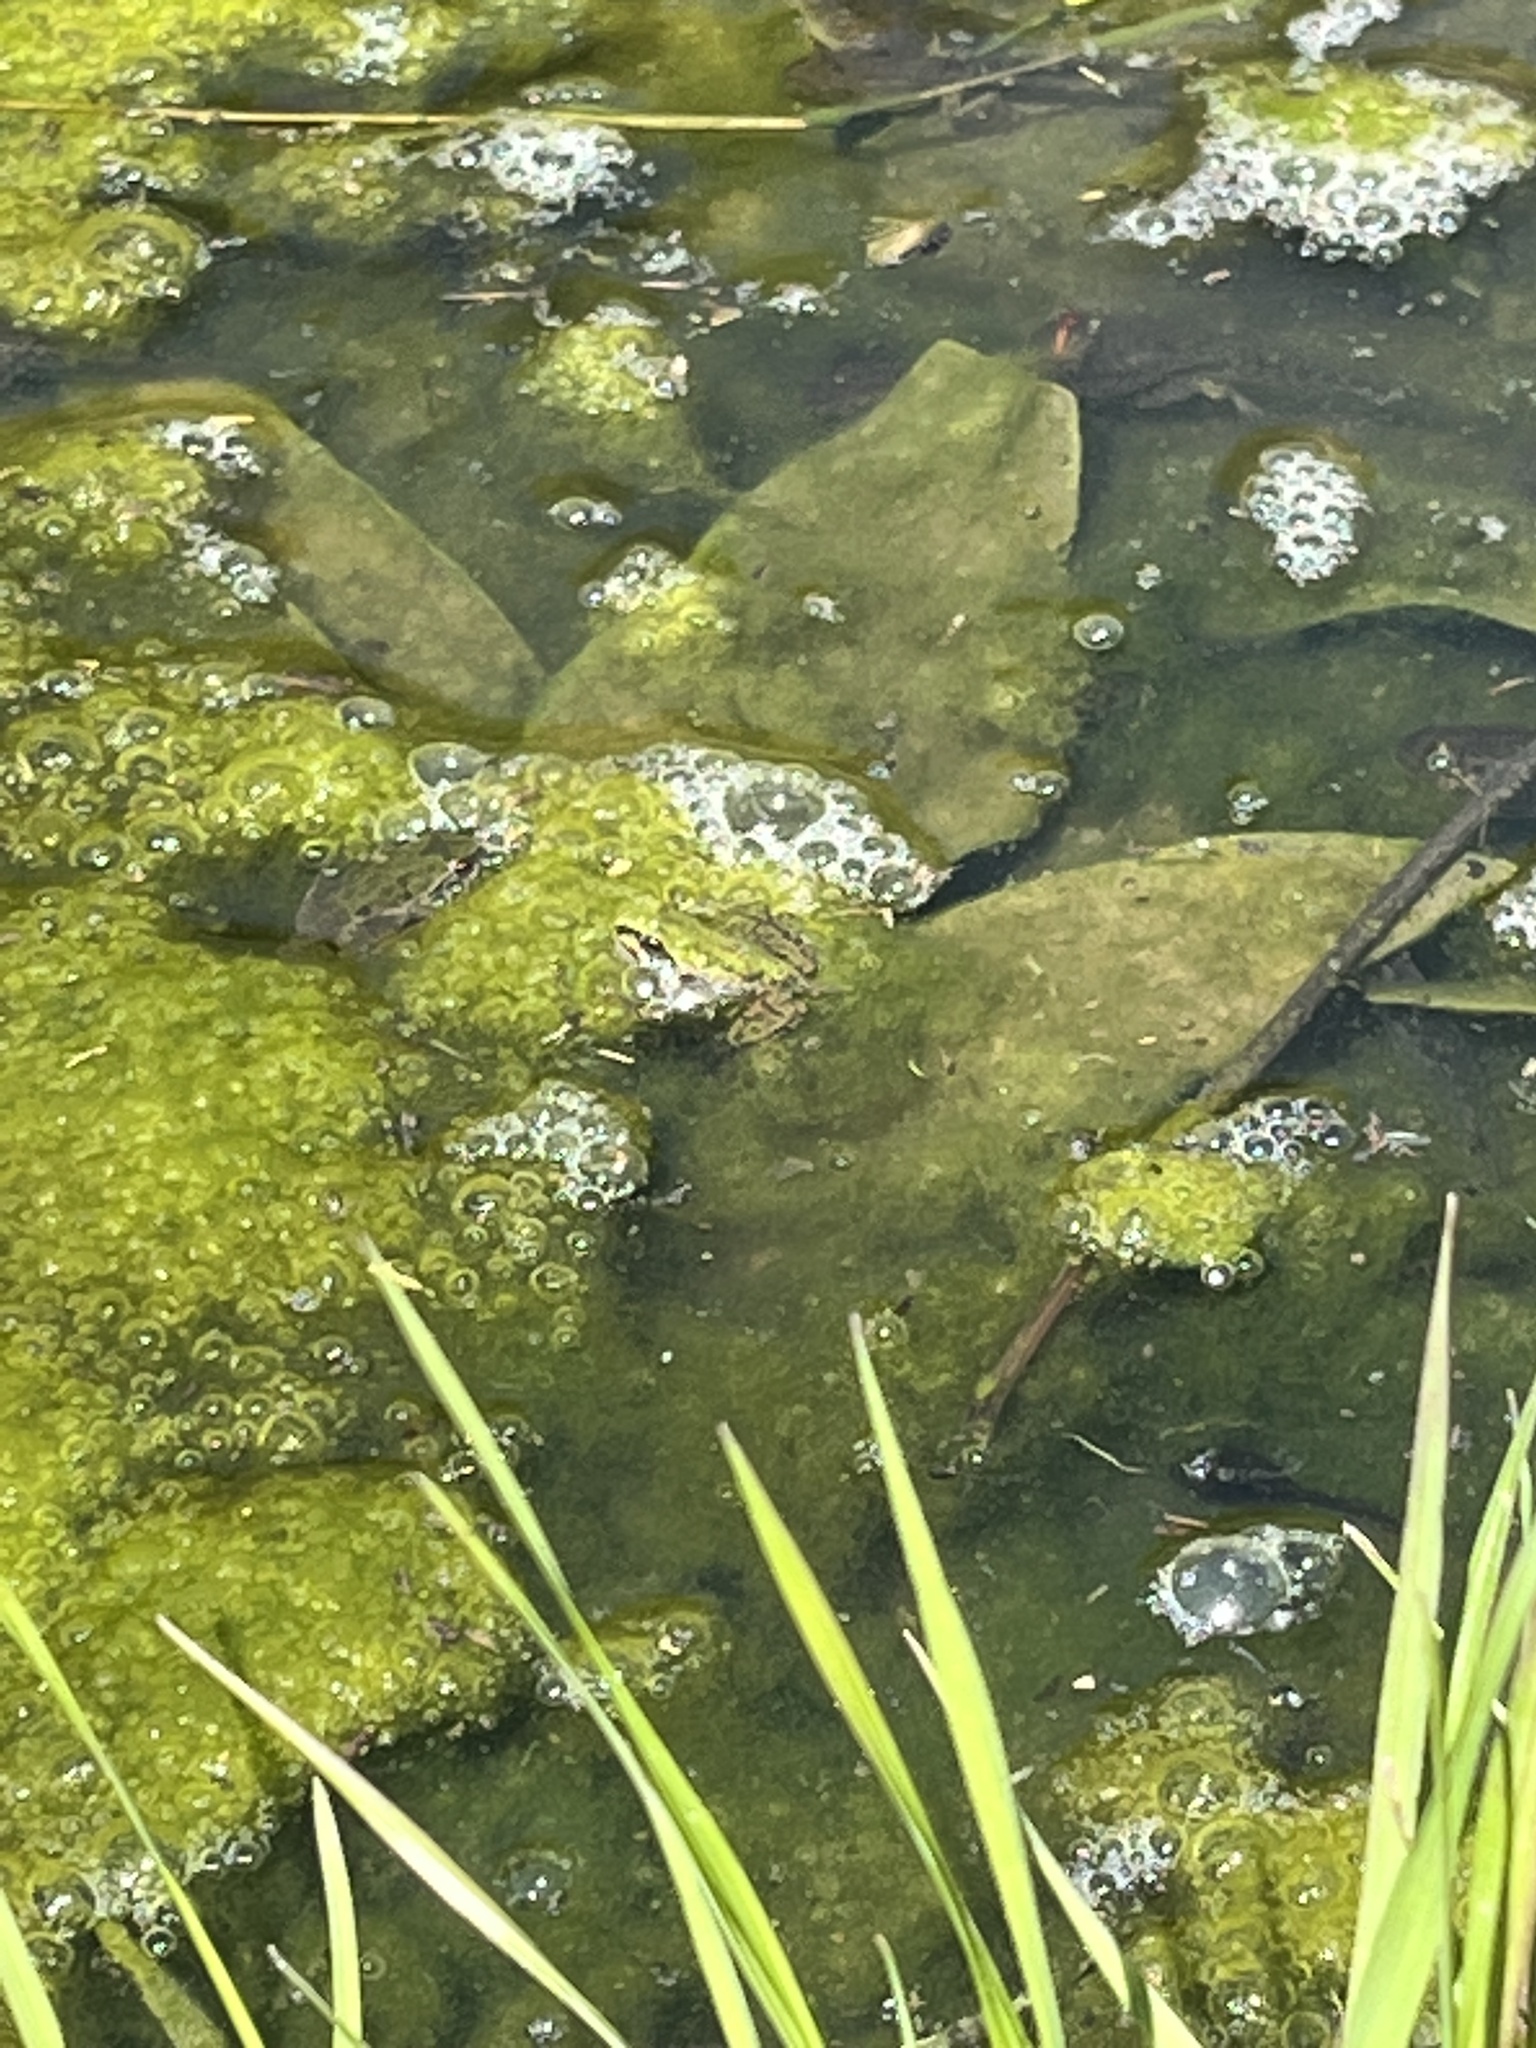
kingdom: Animalia
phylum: Chordata
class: Amphibia
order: Anura
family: Hylidae
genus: Pseudacris
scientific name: Pseudacris regilla
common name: Pacific chorus frog
